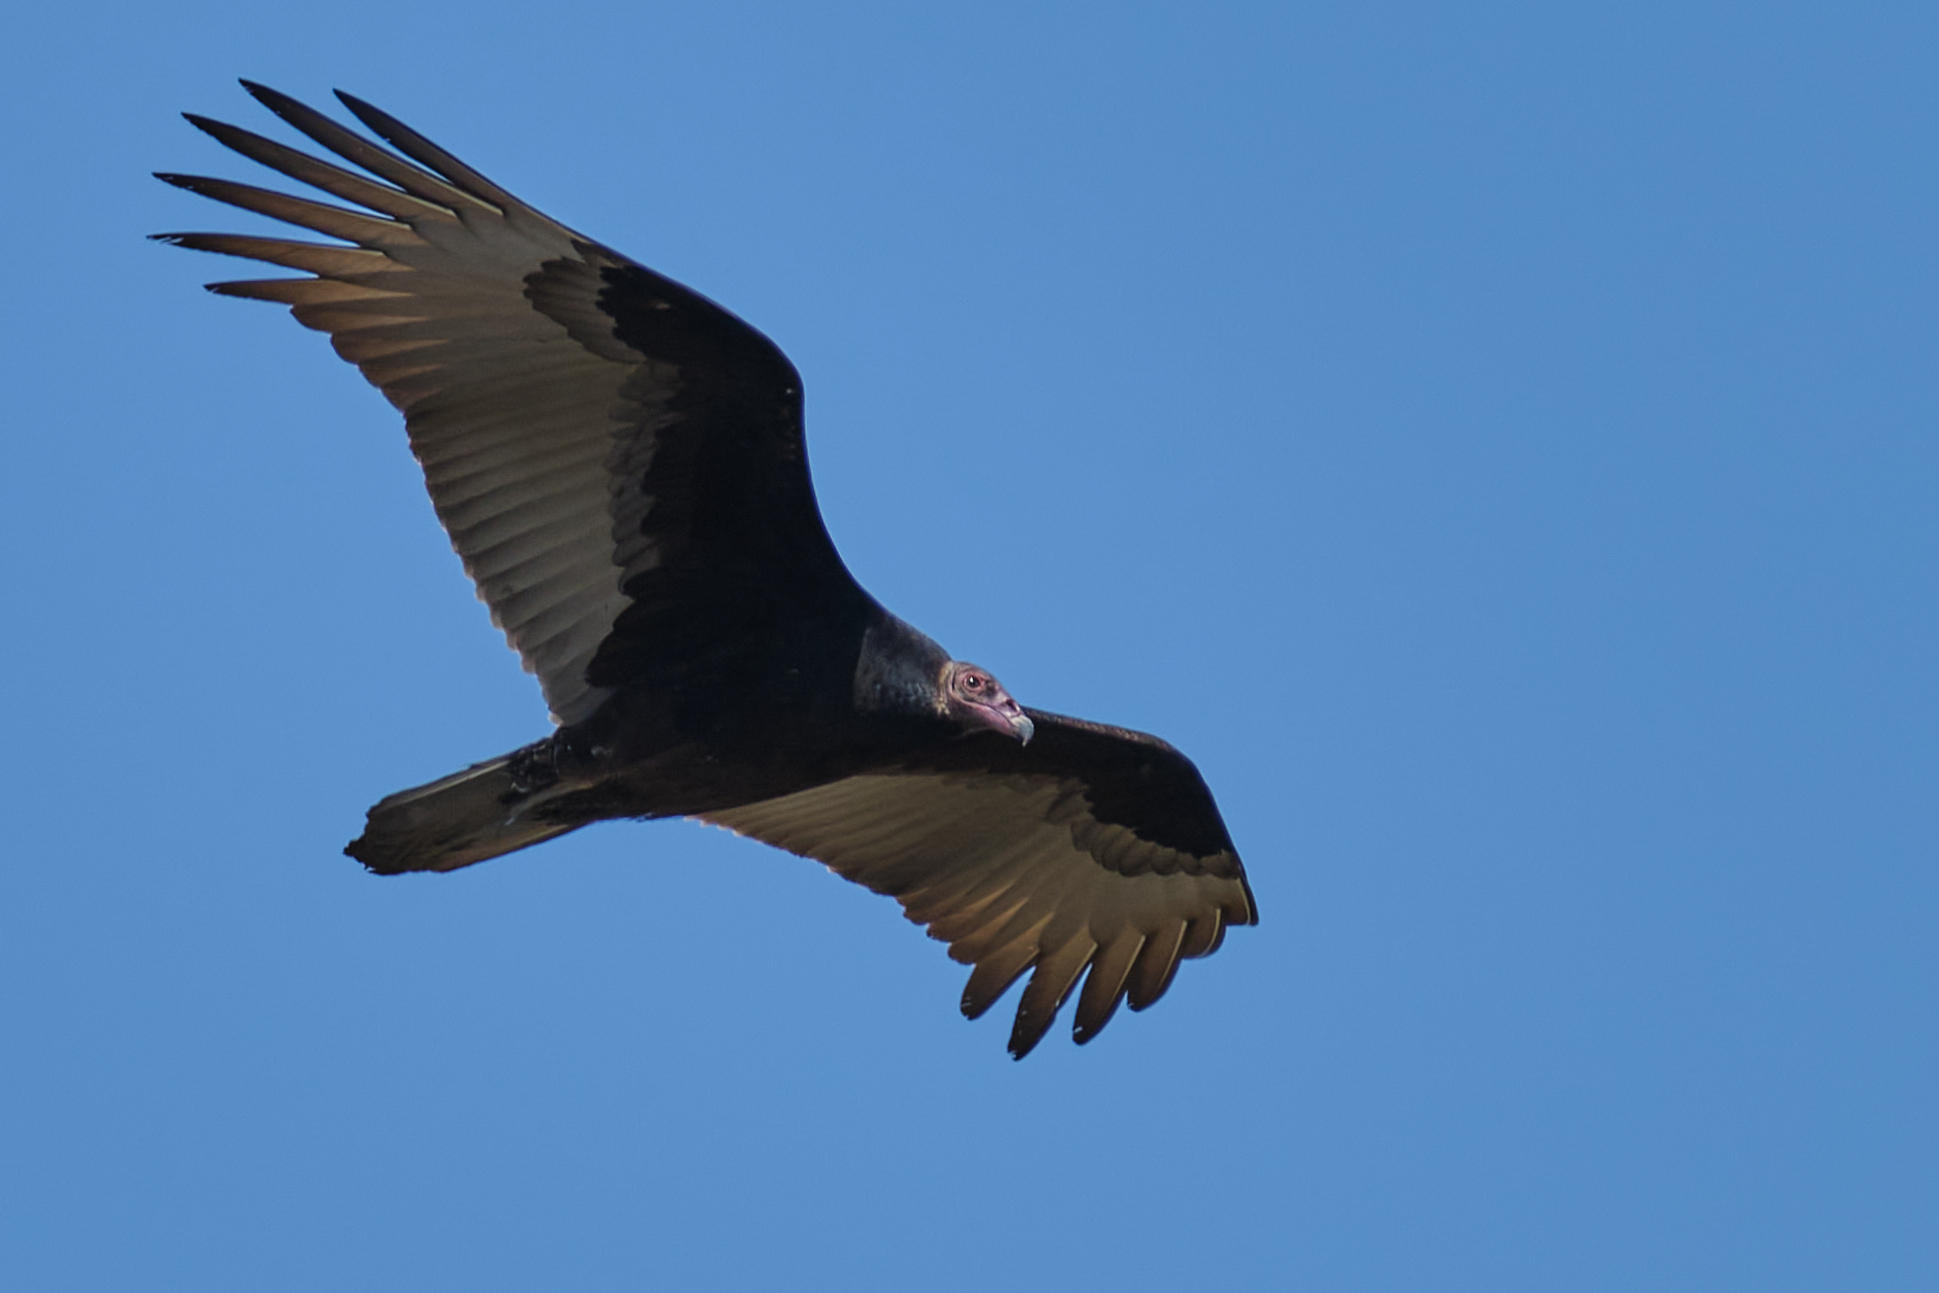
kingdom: Animalia
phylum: Chordata
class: Aves
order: Accipitriformes
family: Cathartidae
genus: Cathartes
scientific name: Cathartes aura
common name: Turkey vulture
